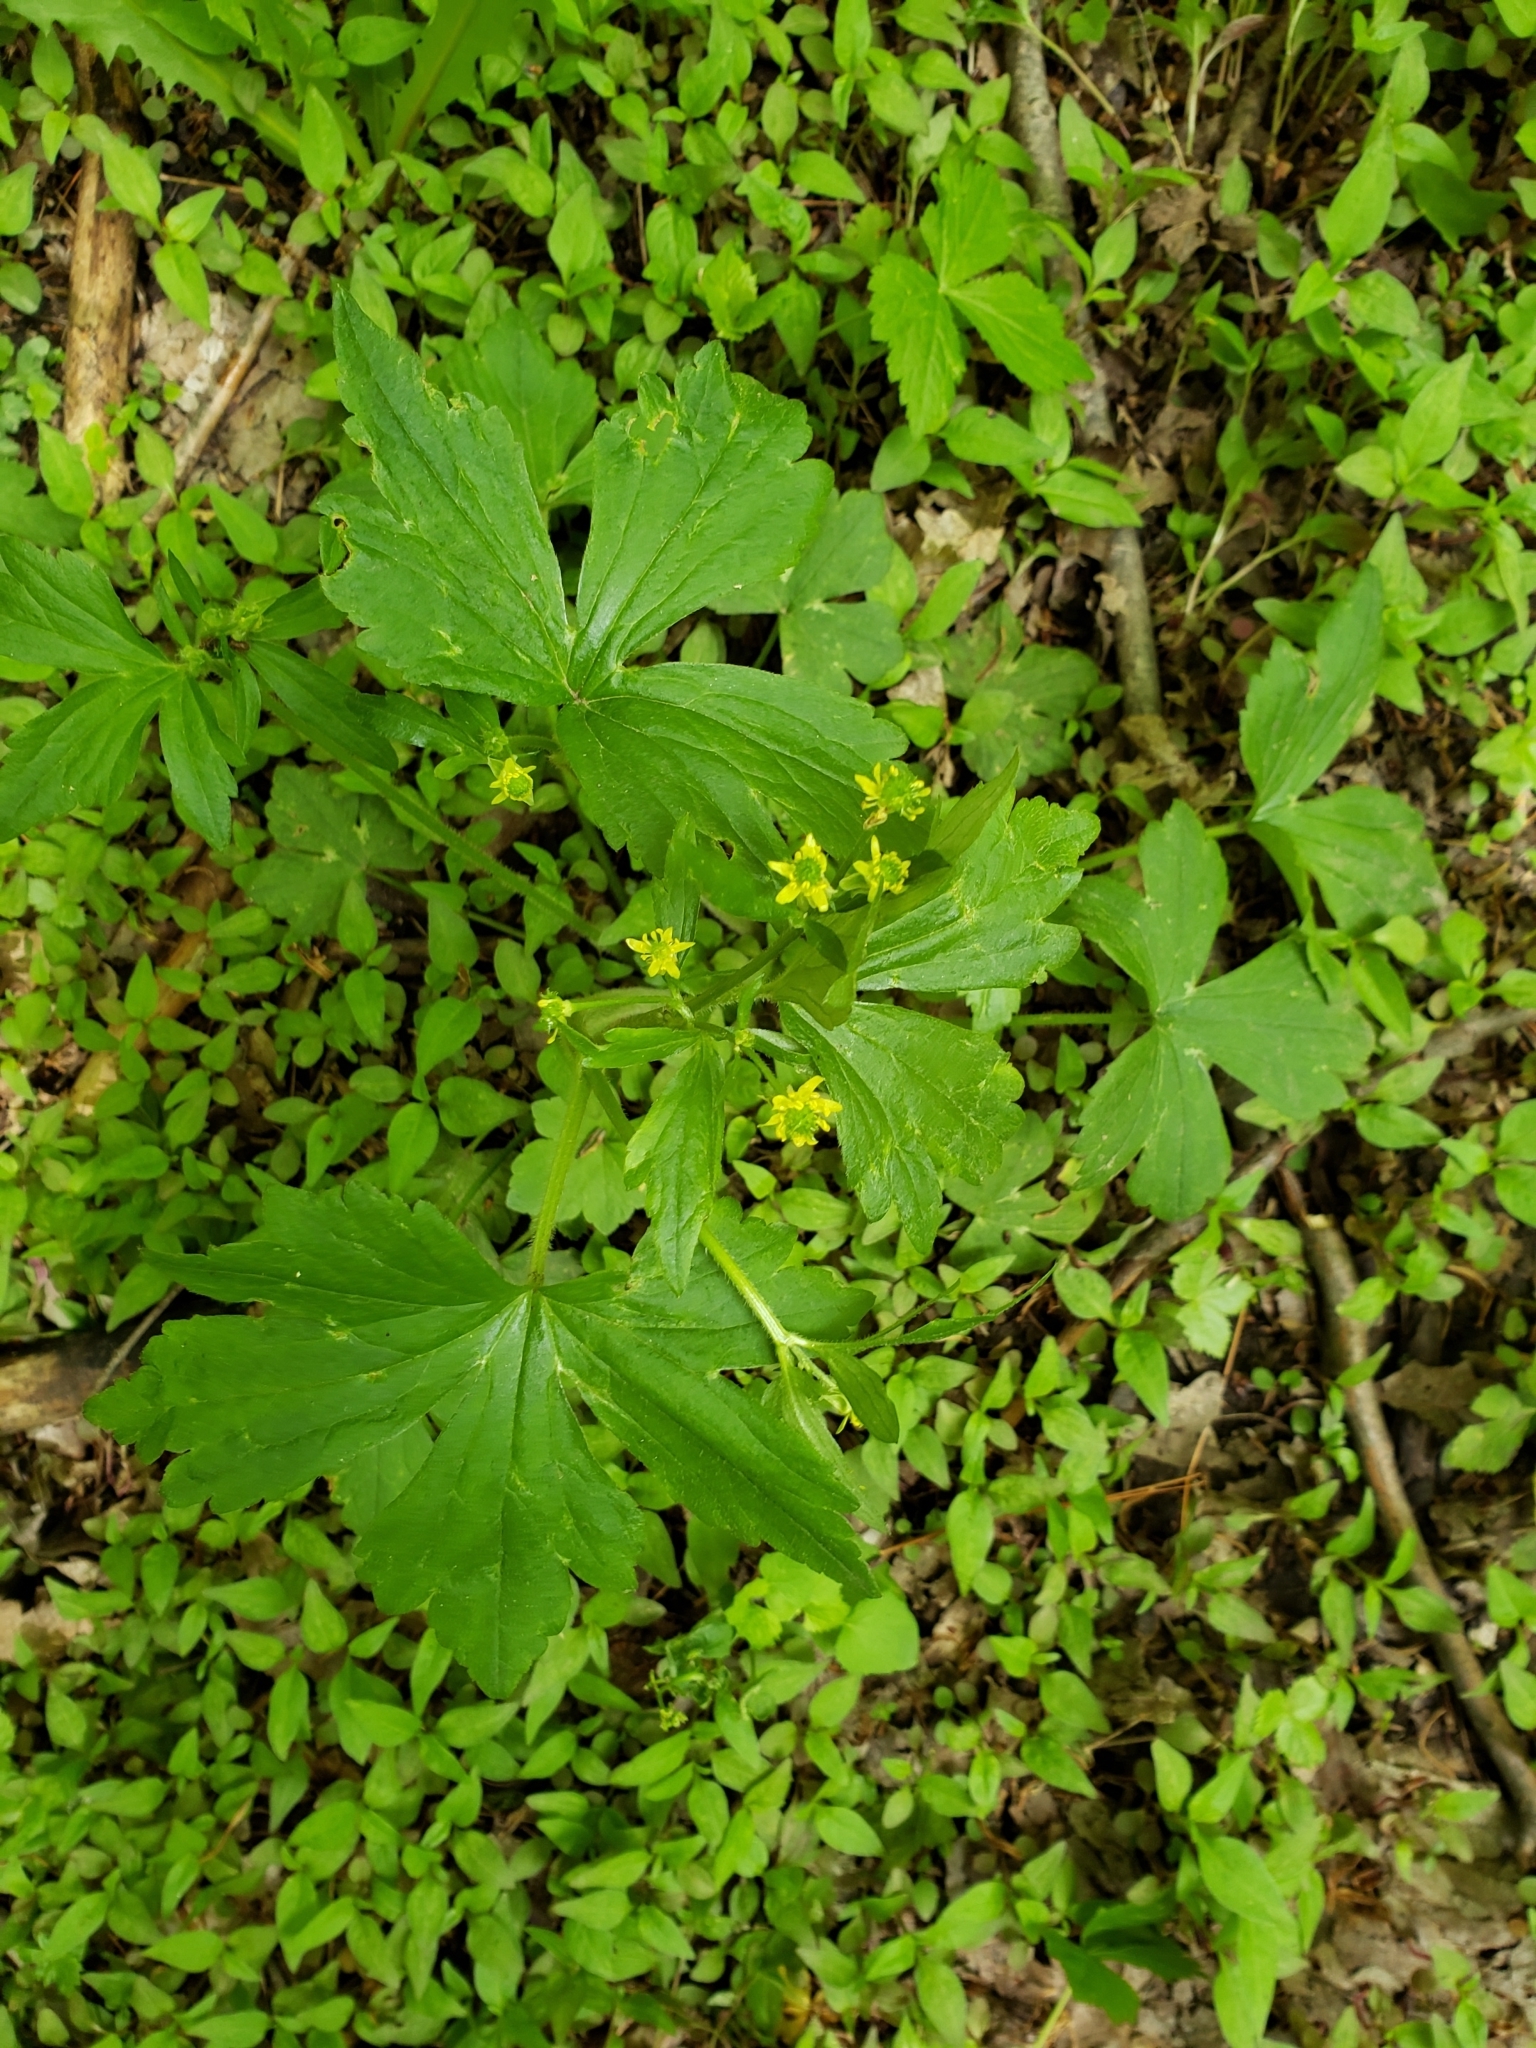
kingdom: Plantae
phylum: Tracheophyta
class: Magnoliopsida
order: Ranunculales
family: Ranunculaceae
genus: Ranunculus
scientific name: Ranunculus recurvatus
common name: Blisterwort
